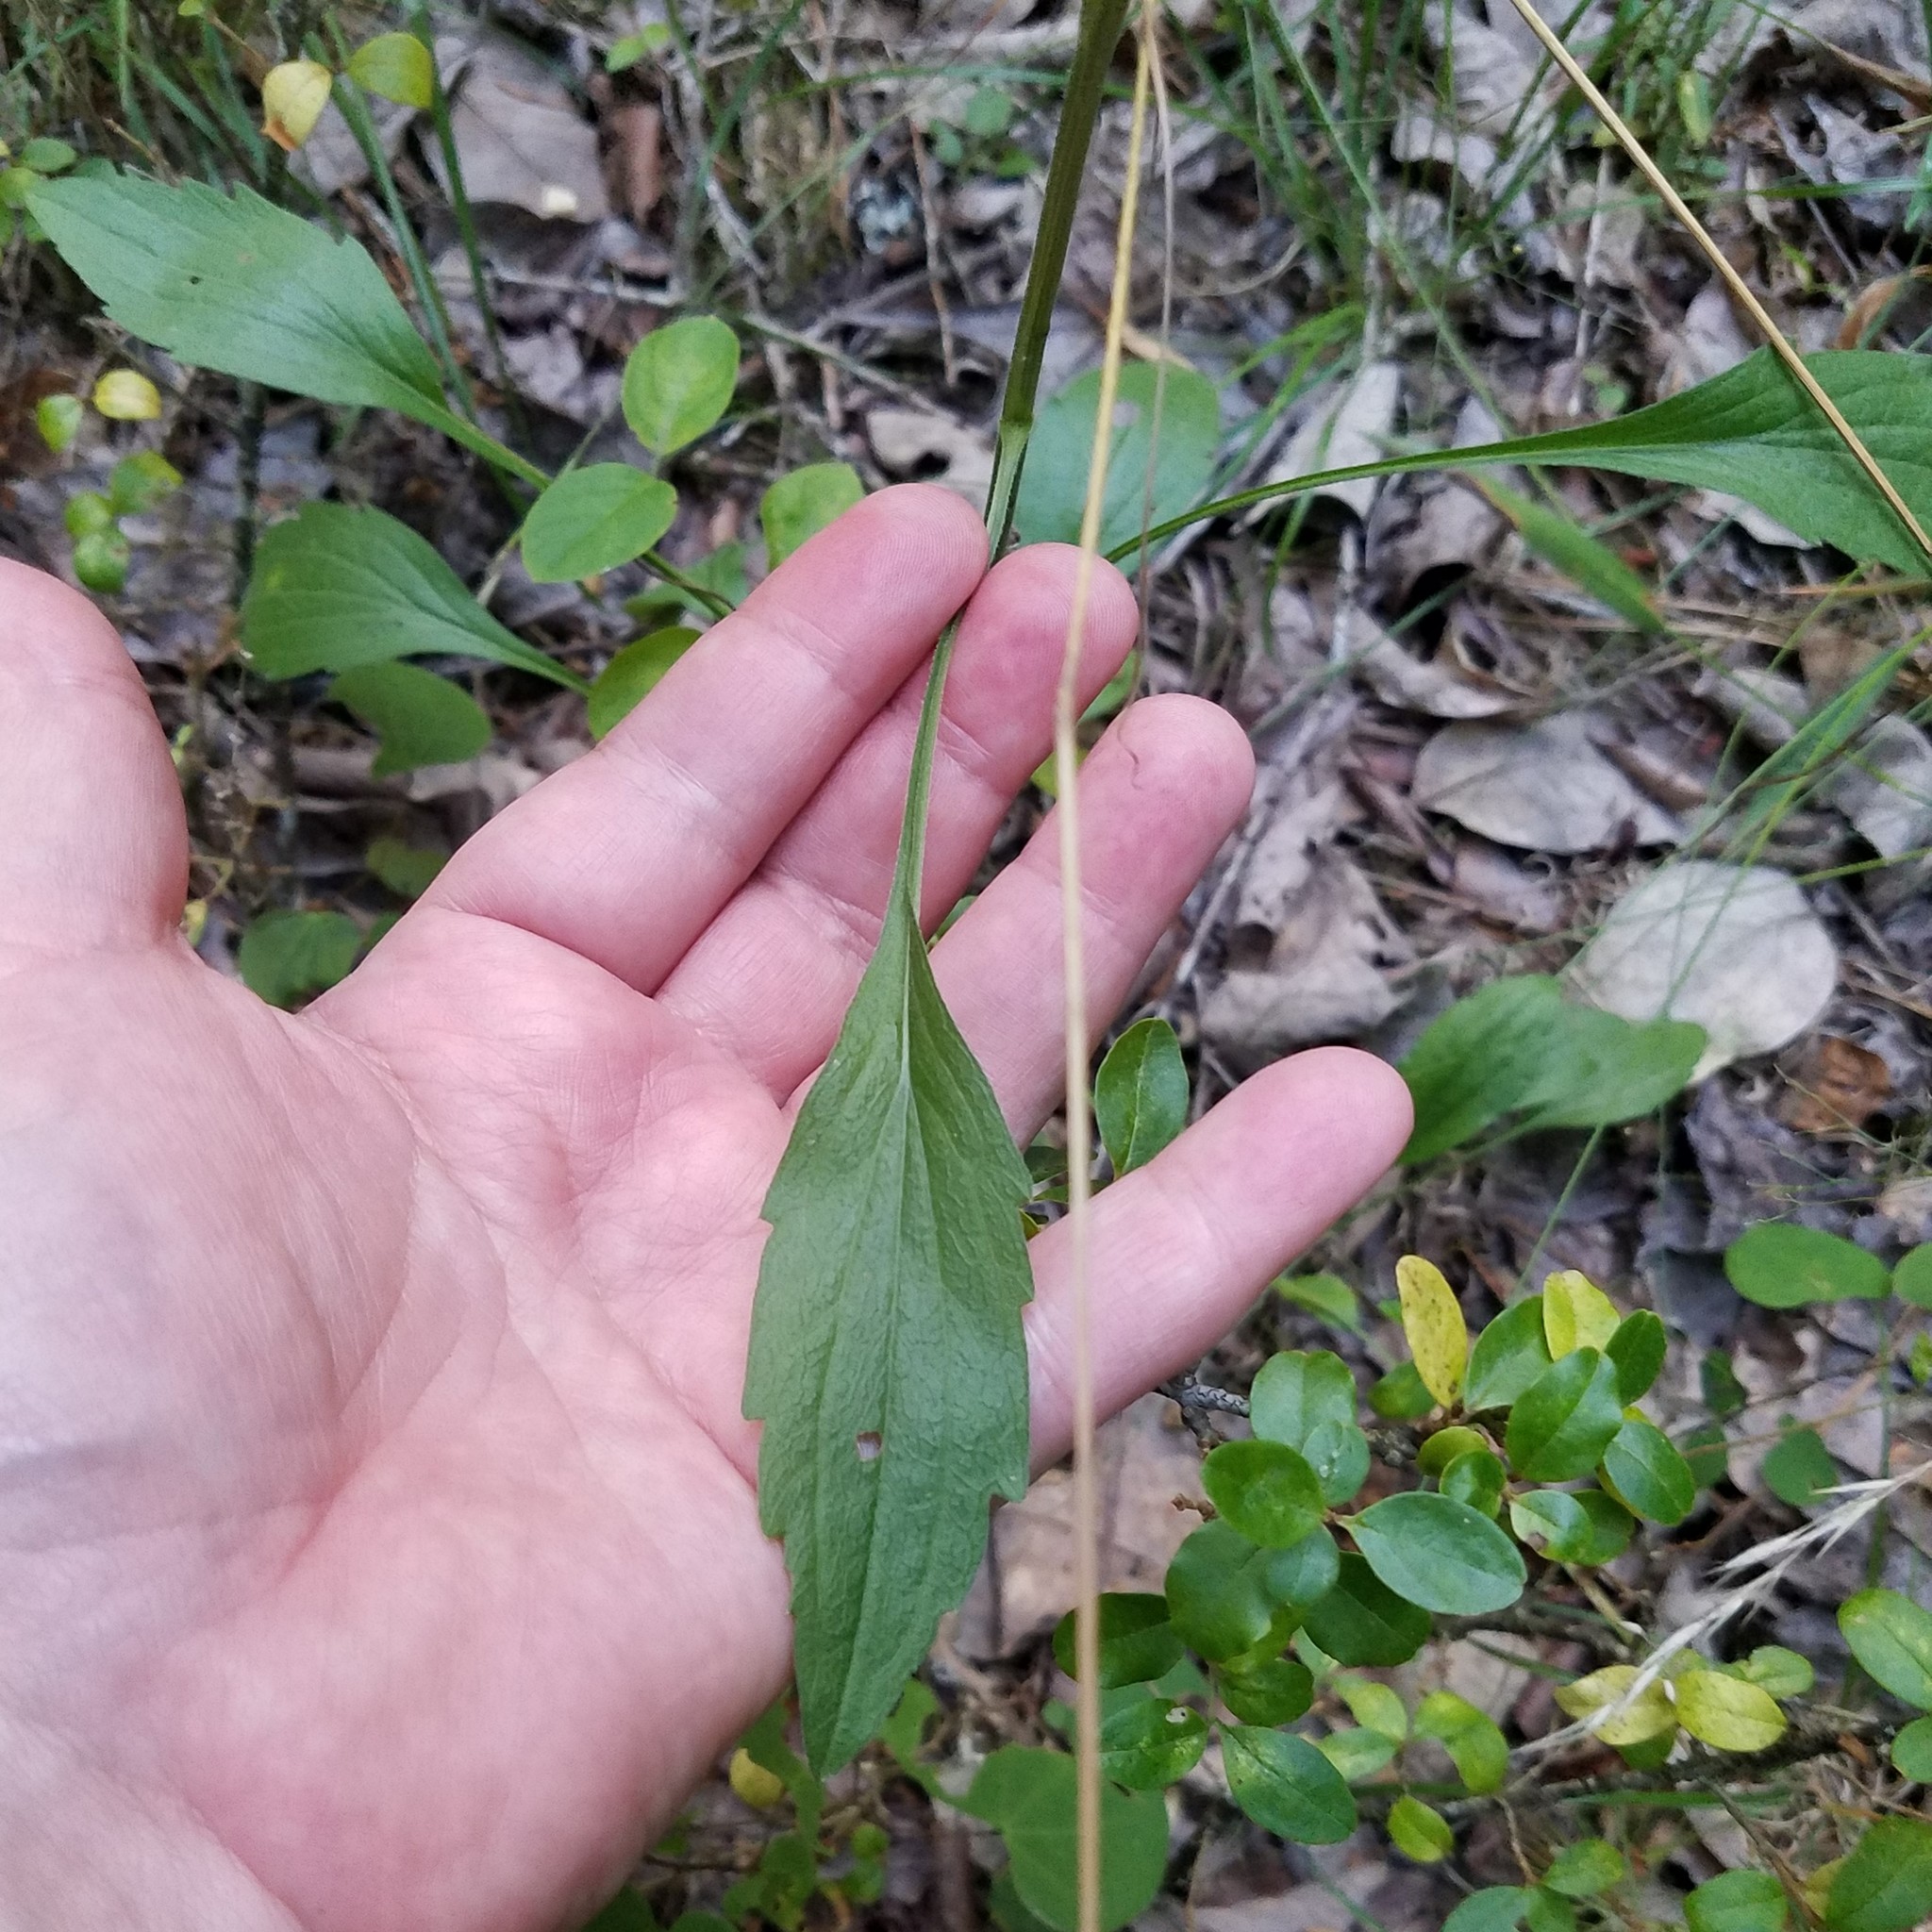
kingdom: Plantae
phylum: Tracheophyta
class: Magnoliopsida
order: Asterales
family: Asteraceae
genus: Erigeron
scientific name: Erigeron strigosus
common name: Common eastern fleabane
